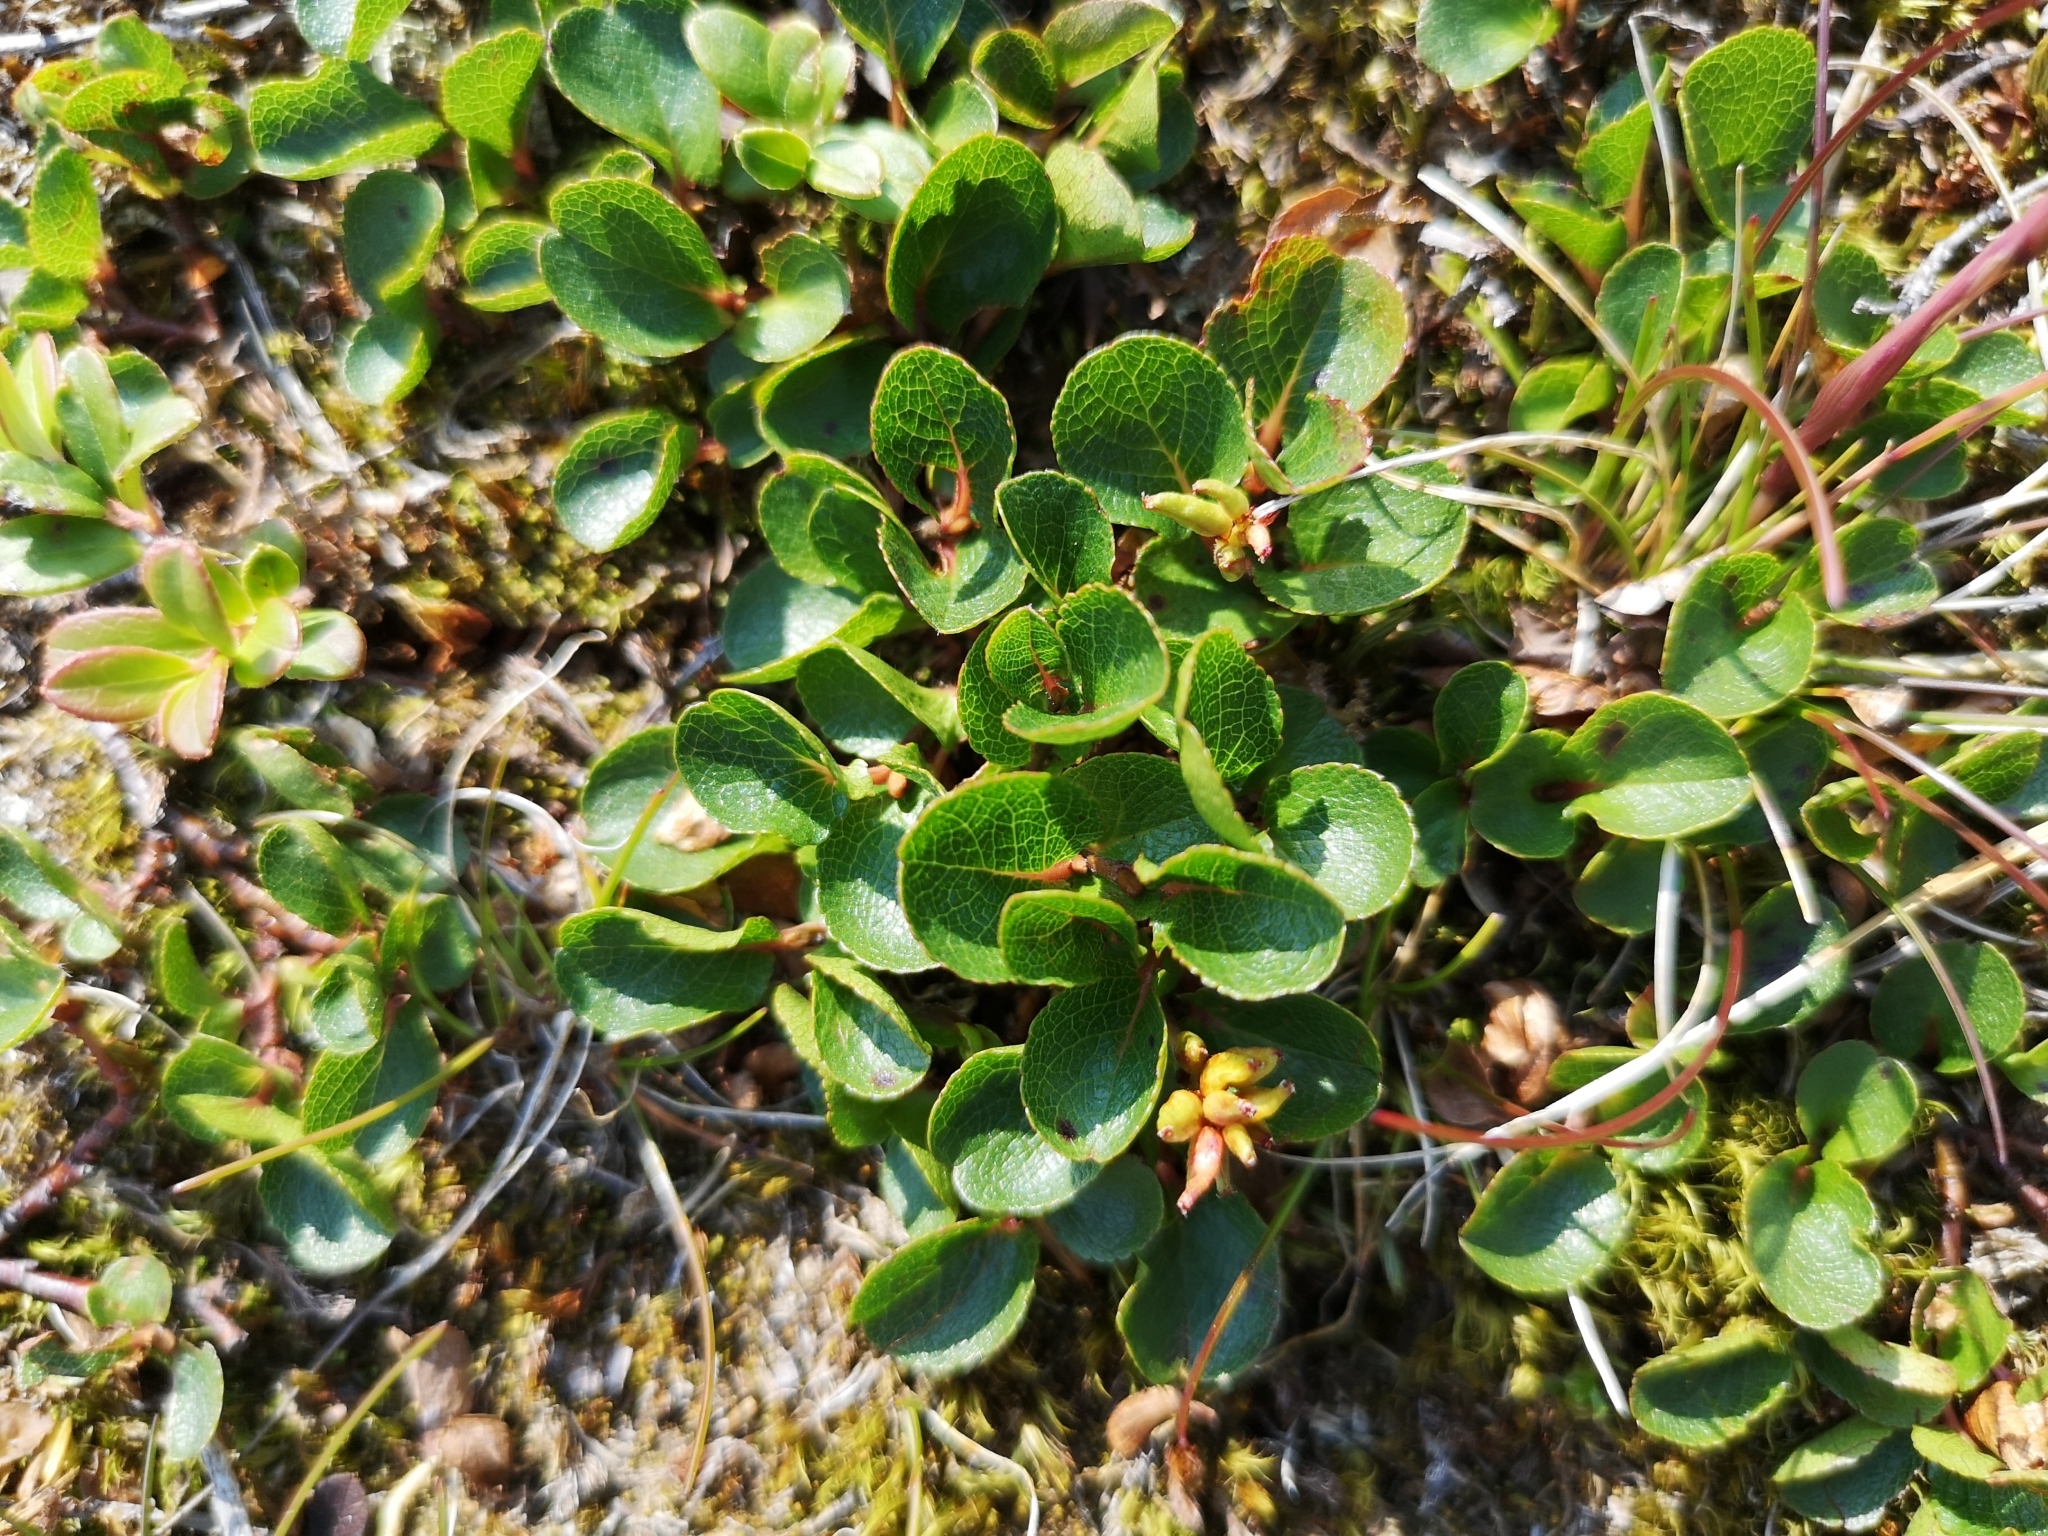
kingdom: Plantae
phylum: Tracheophyta
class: Magnoliopsida
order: Malpighiales
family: Salicaceae
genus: Salix
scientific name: Salix herbacea
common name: Dwarf willow
